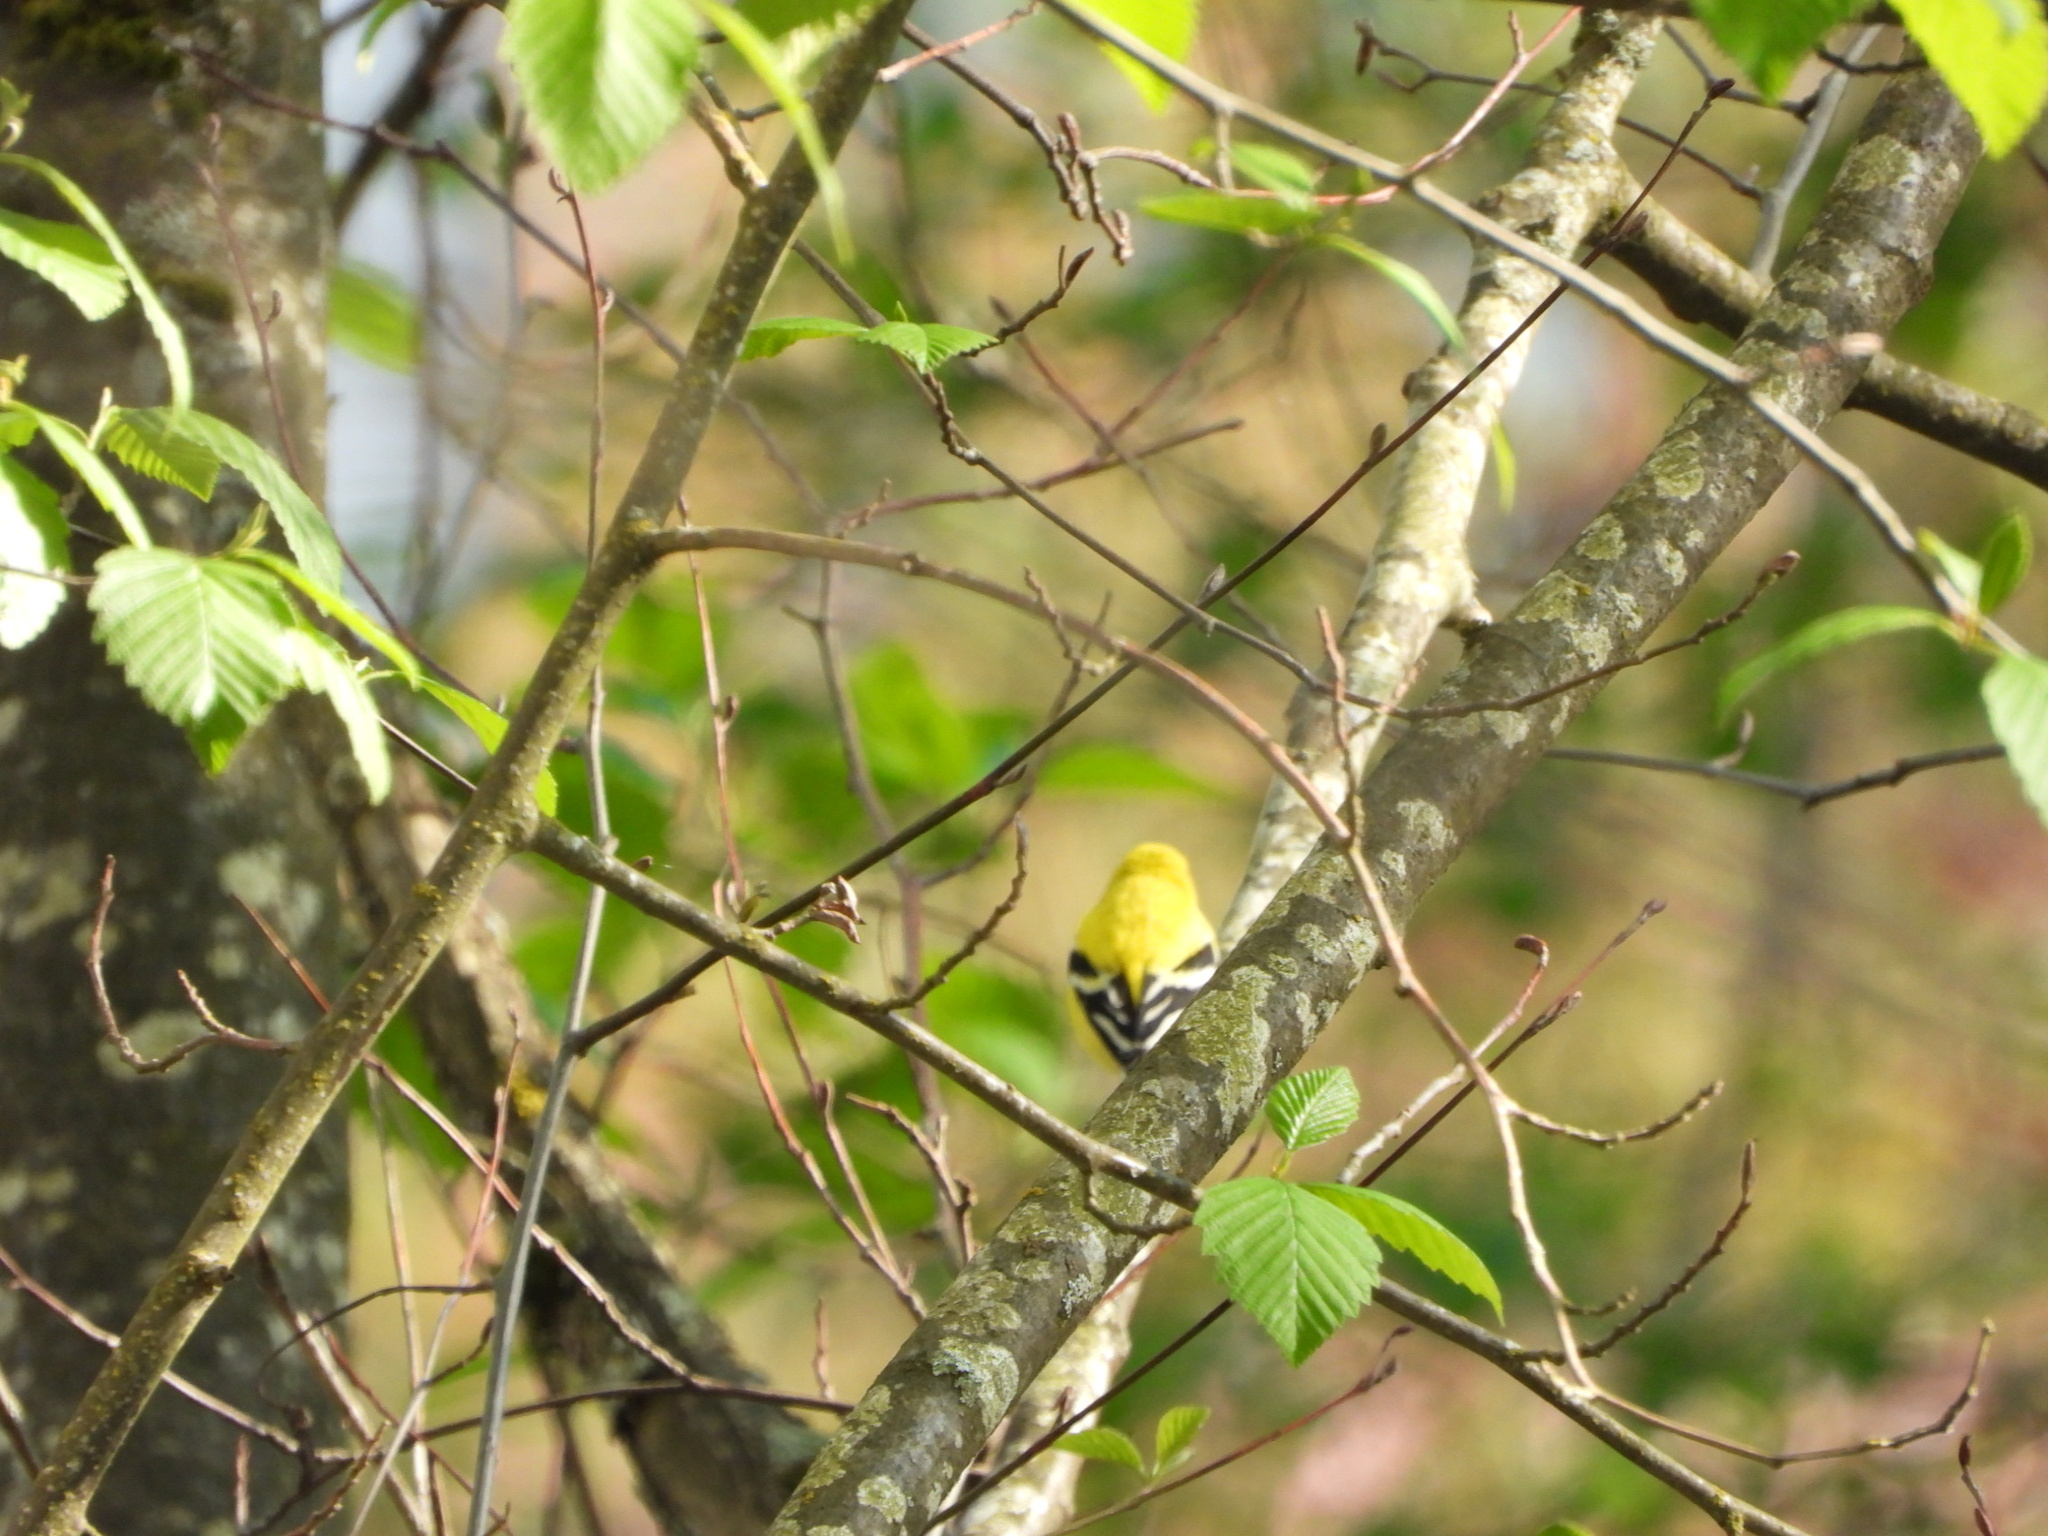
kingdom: Animalia
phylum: Chordata
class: Aves
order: Passeriformes
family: Fringillidae
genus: Spinus
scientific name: Spinus tristis
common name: American goldfinch
